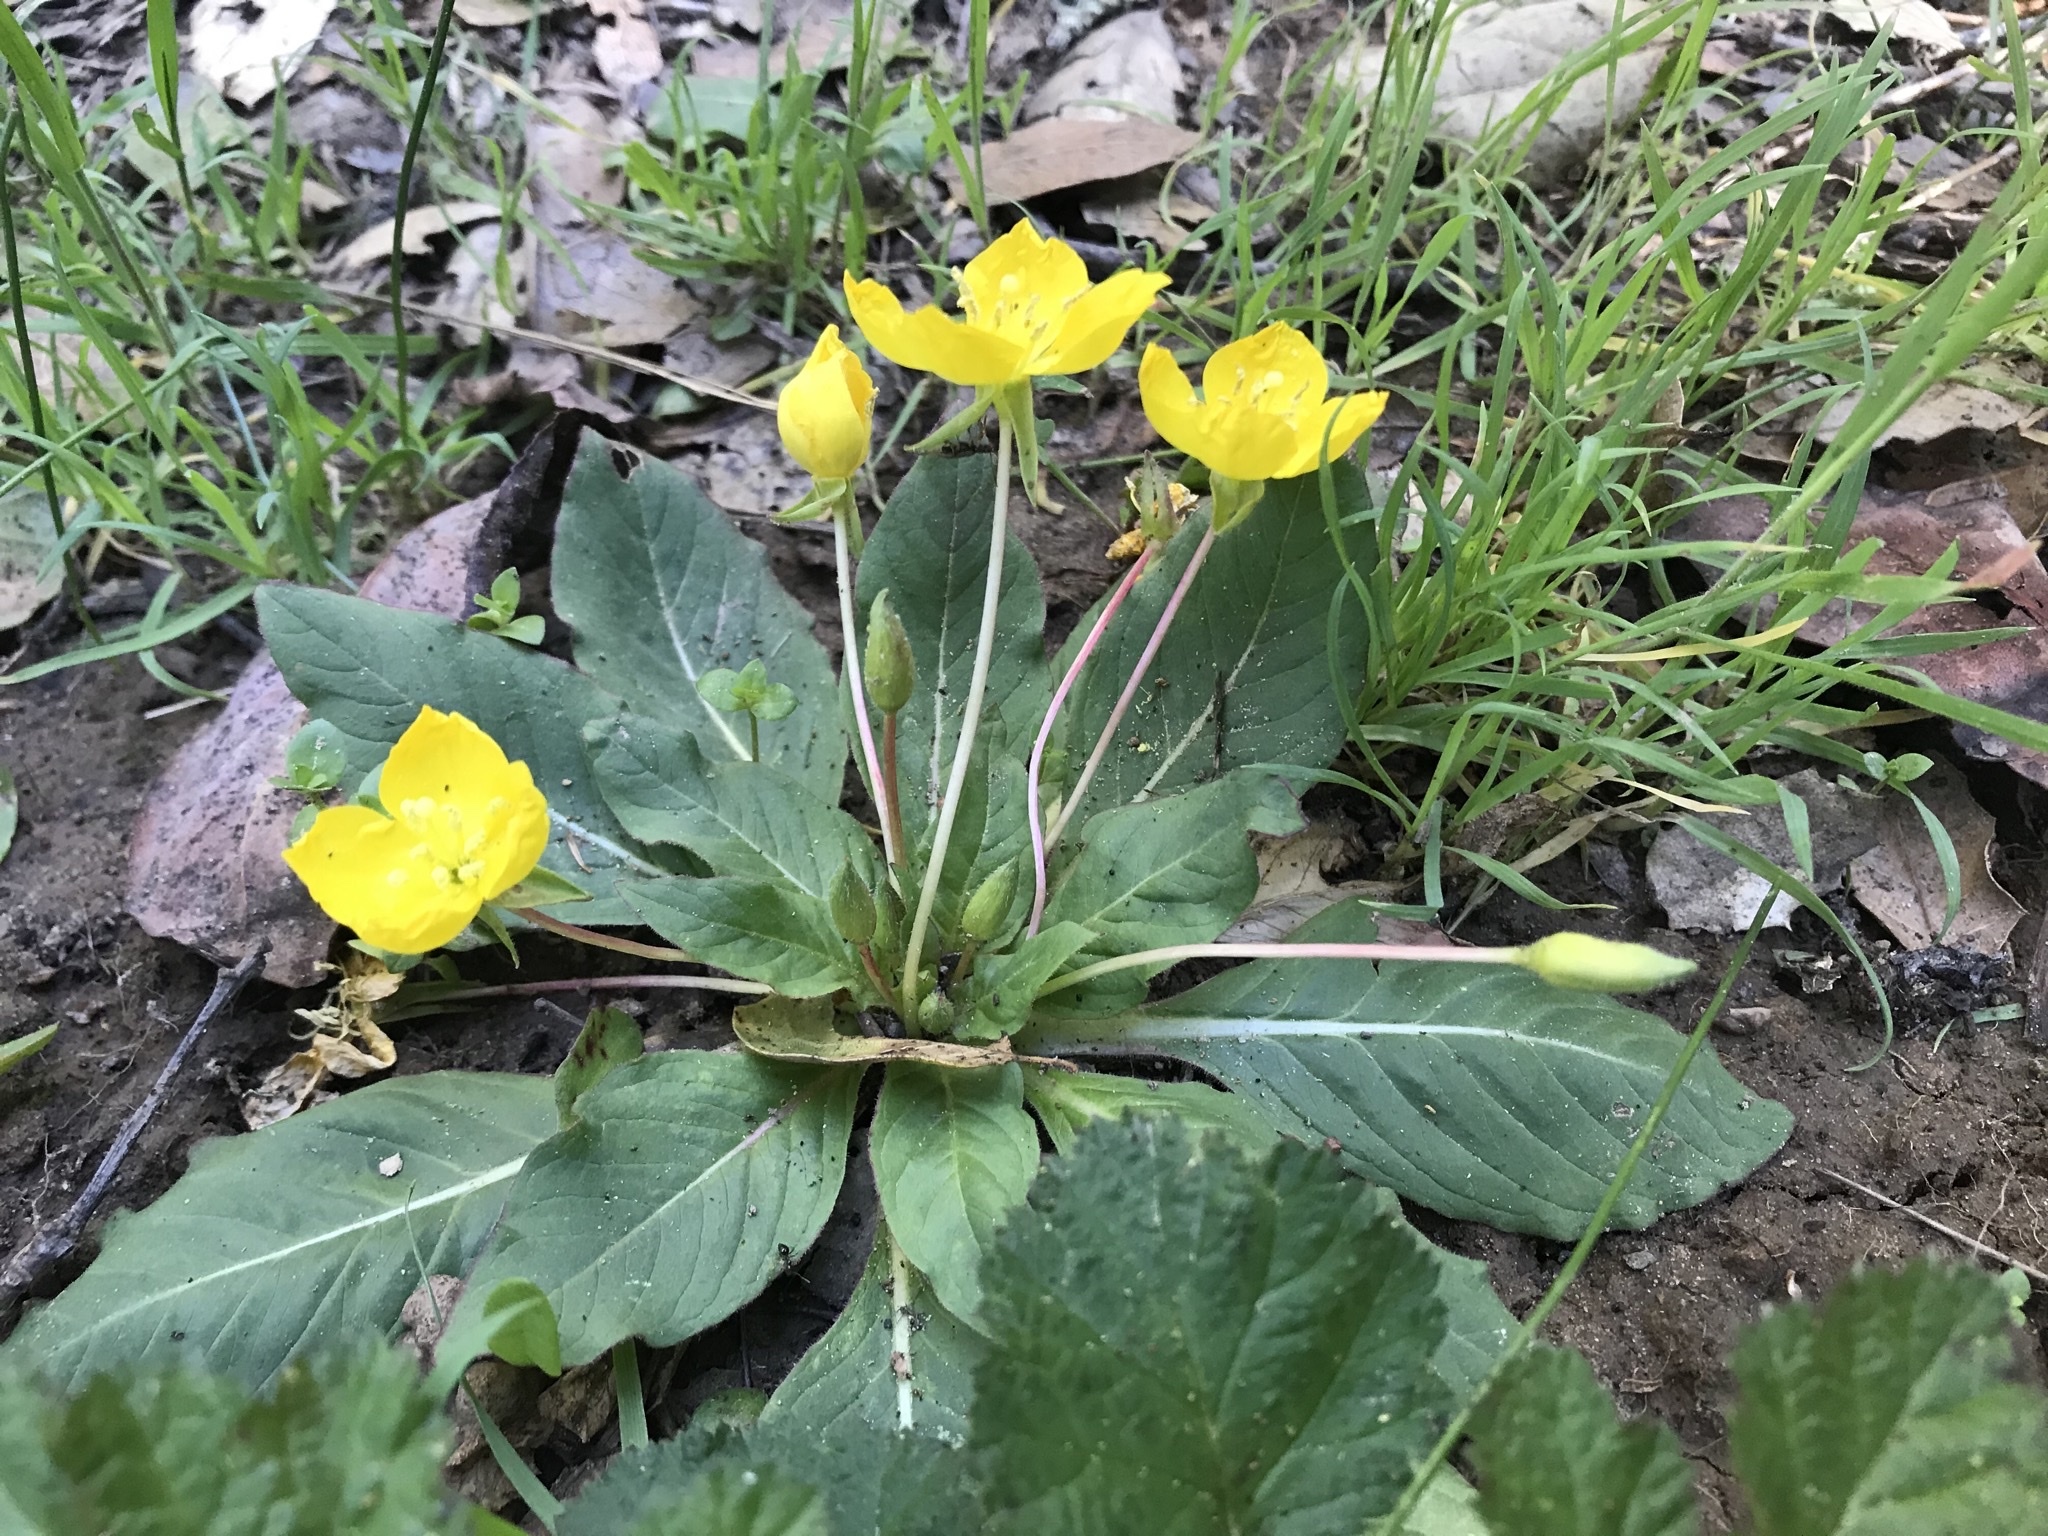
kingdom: Plantae
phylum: Tracheophyta
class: Magnoliopsida
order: Myrtales
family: Onagraceae
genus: Taraxia
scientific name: Taraxia ovata
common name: Goldeneggs
